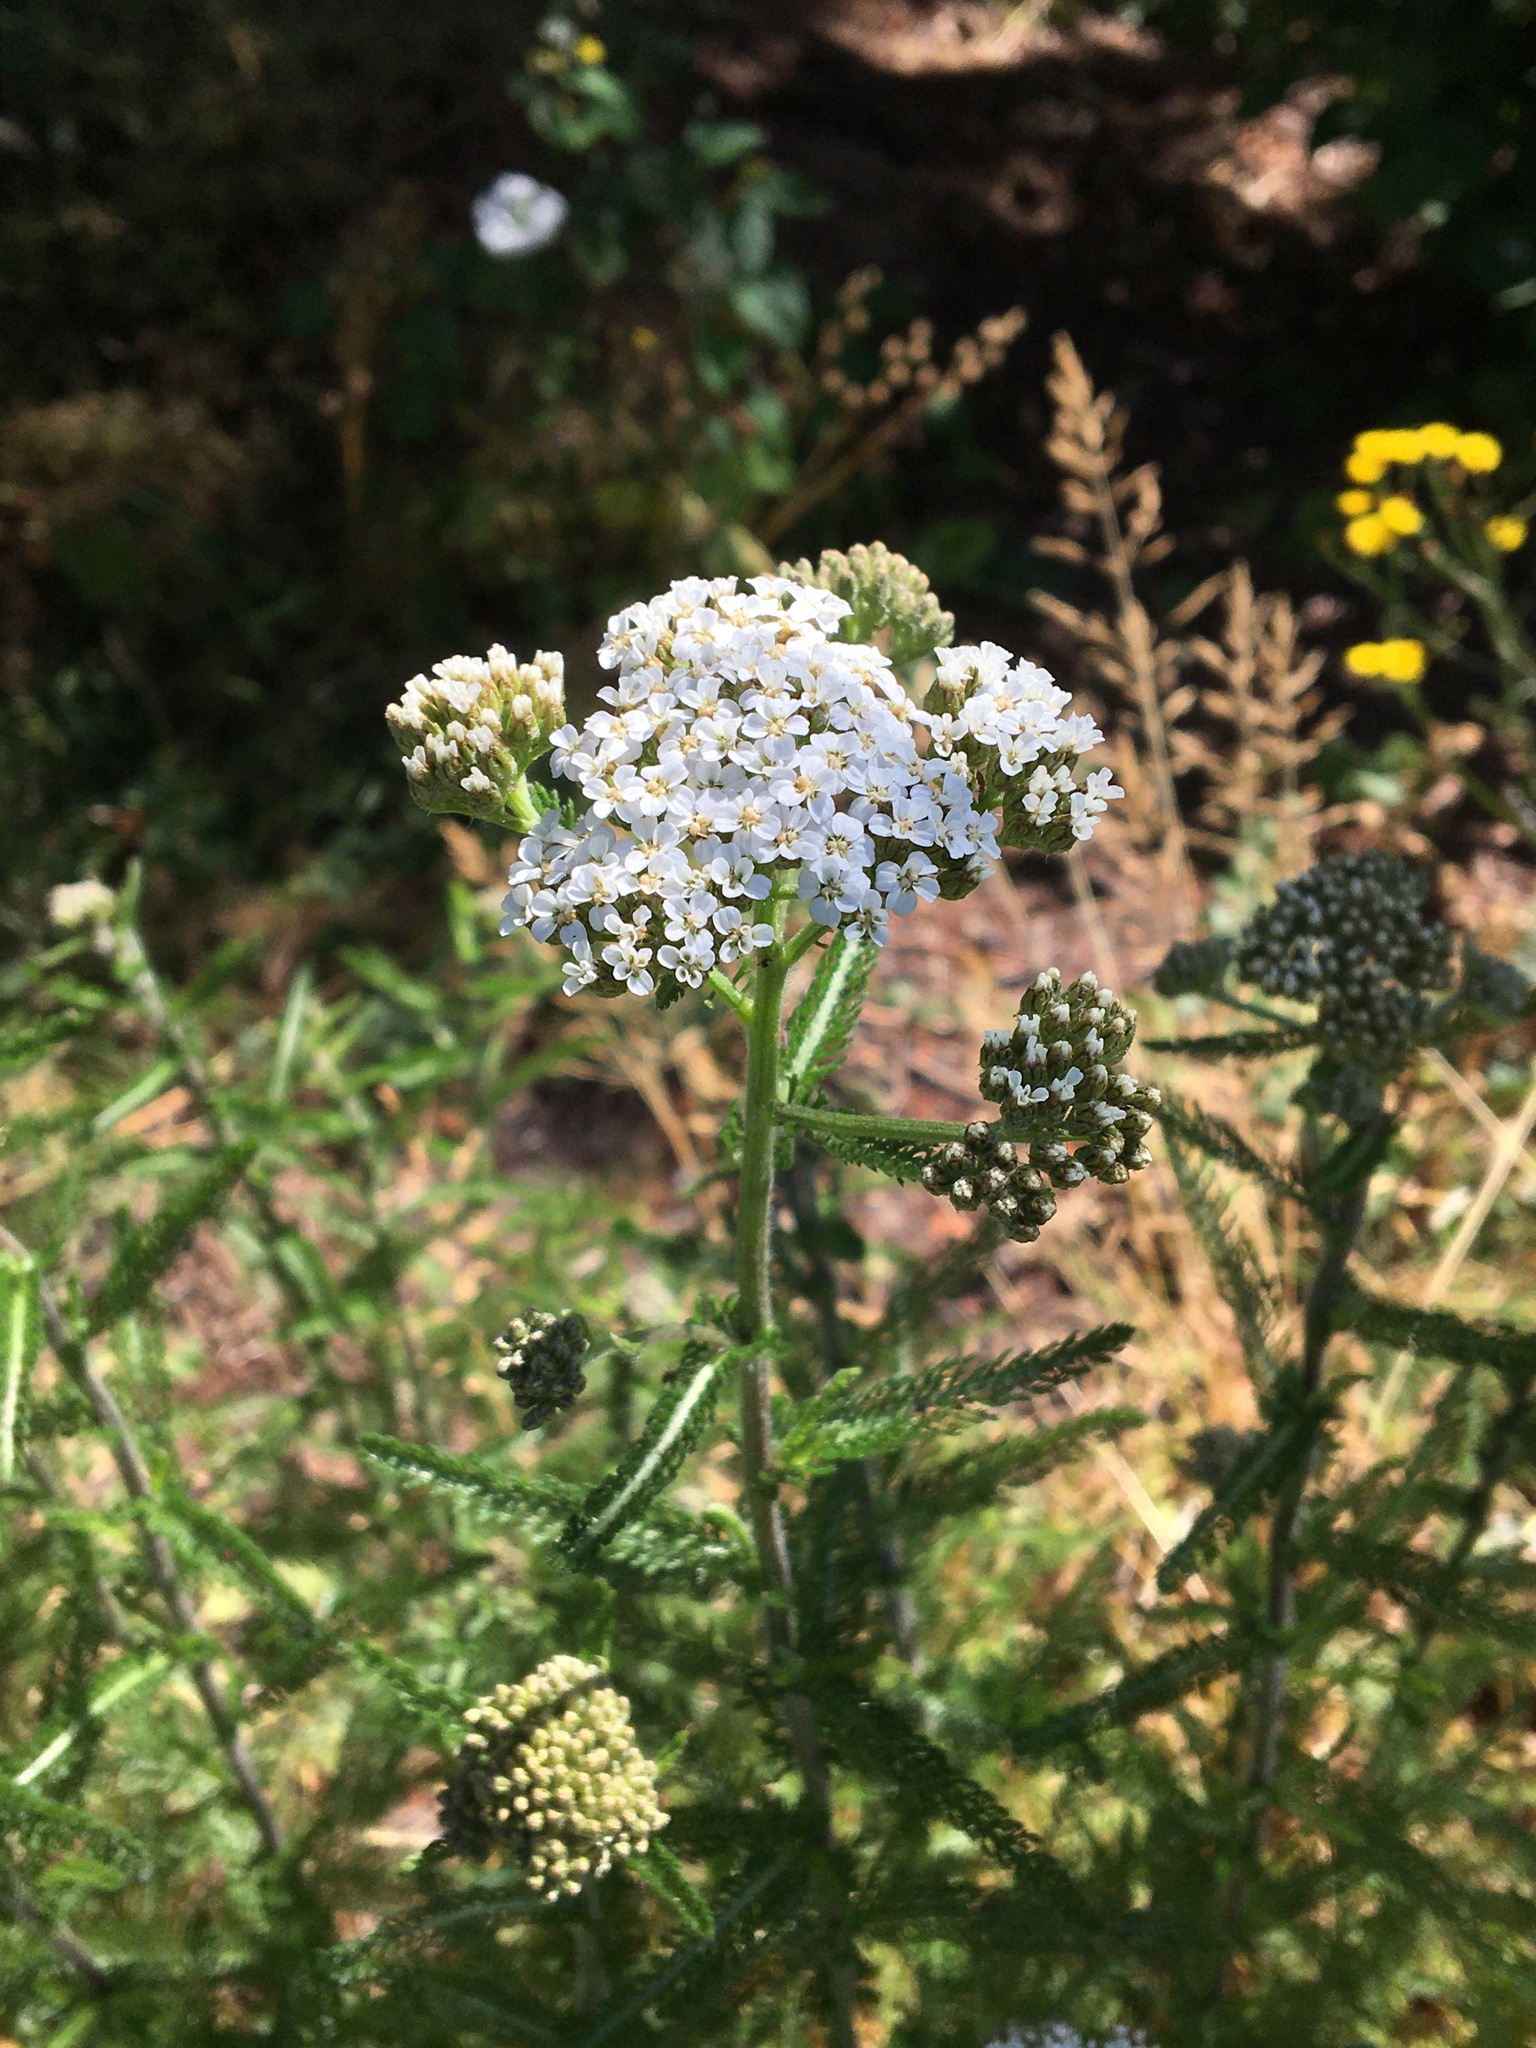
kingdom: Plantae
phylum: Tracheophyta
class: Magnoliopsida
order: Asterales
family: Asteraceae
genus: Achillea
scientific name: Achillea millefolium
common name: Yarrow
